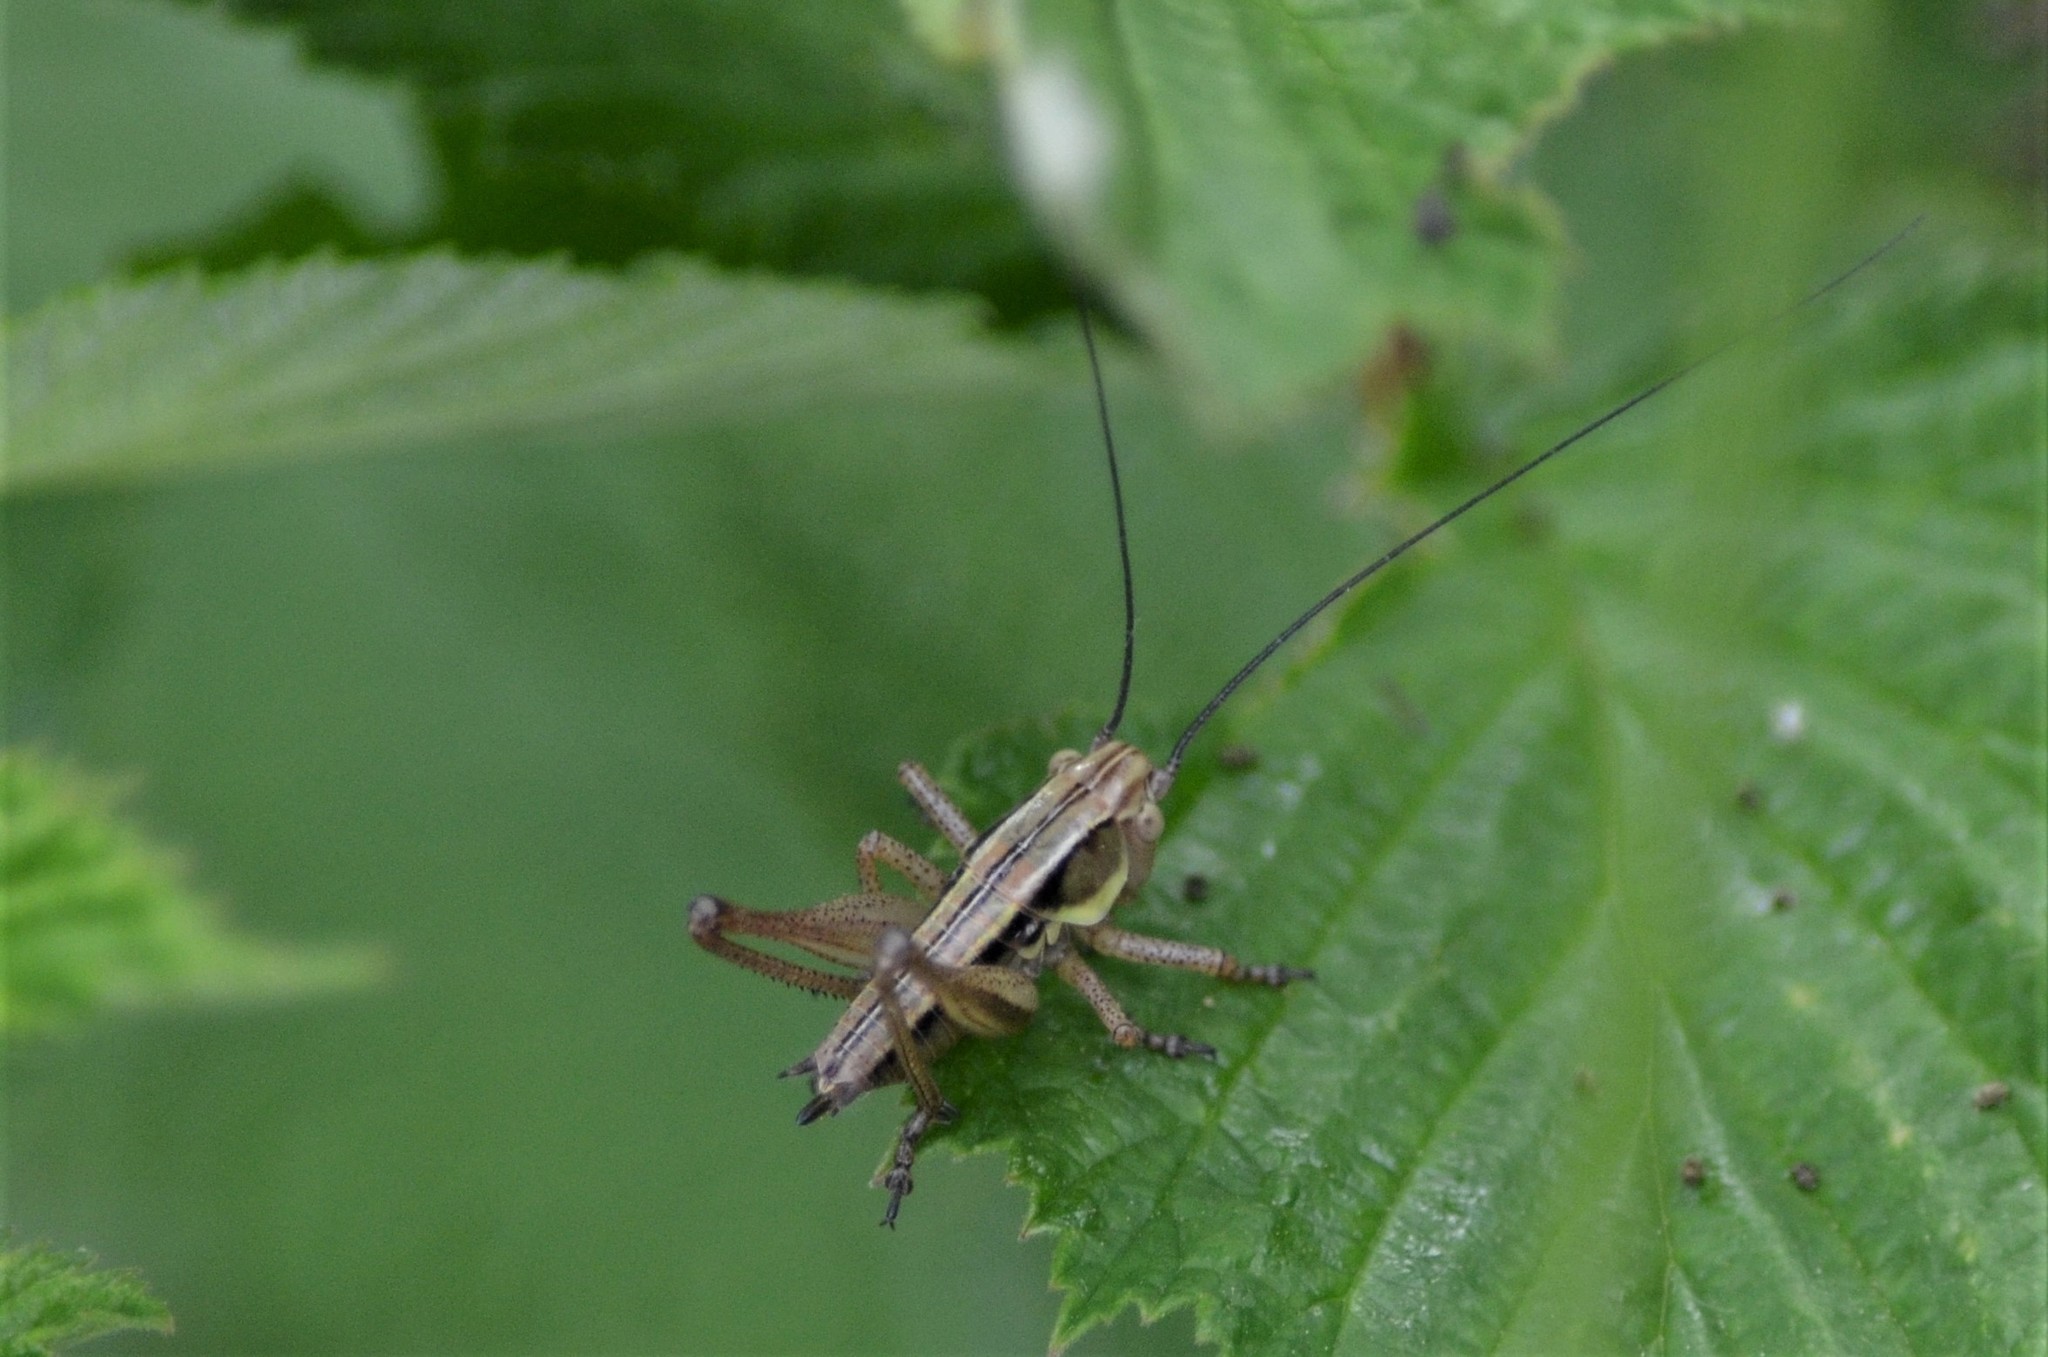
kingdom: Animalia
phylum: Arthropoda
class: Insecta
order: Orthoptera
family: Tettigoniidae
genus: Roeseliana
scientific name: Roeseliana roeselii
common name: Roesel's bush cricket
